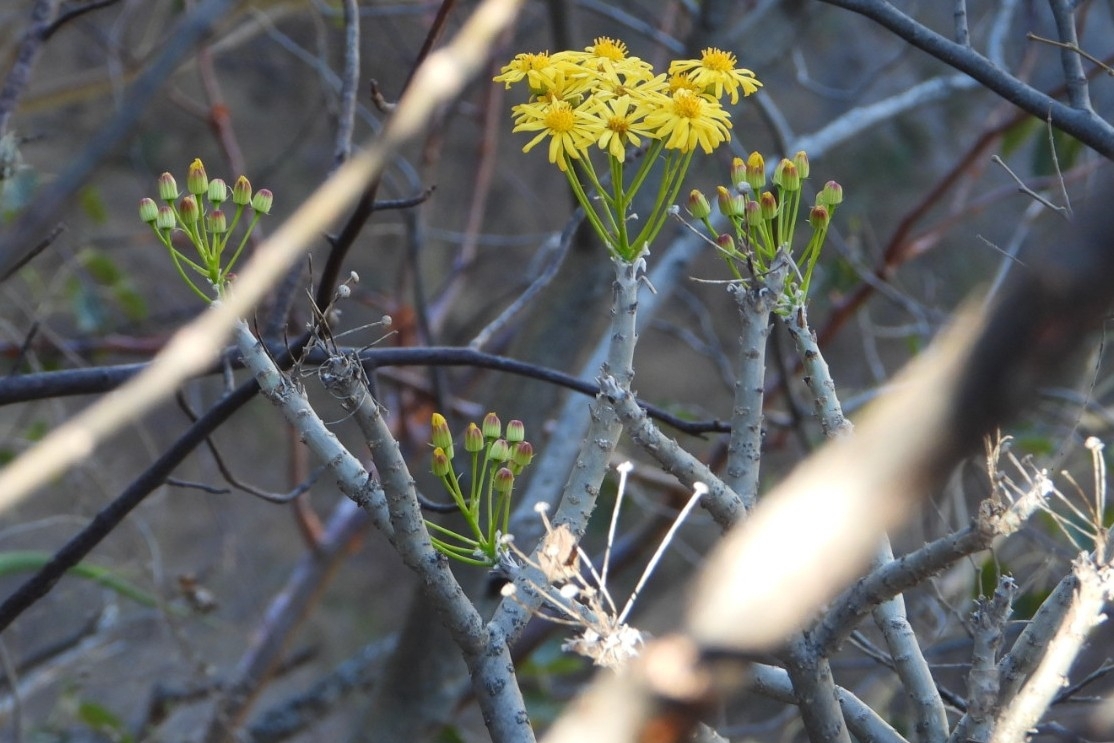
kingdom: Plantae
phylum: Tracheophyta
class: Magnoliopsida
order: Asterales
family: Asteraceae
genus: Pittocaulon
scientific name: Pittocaulon filare
